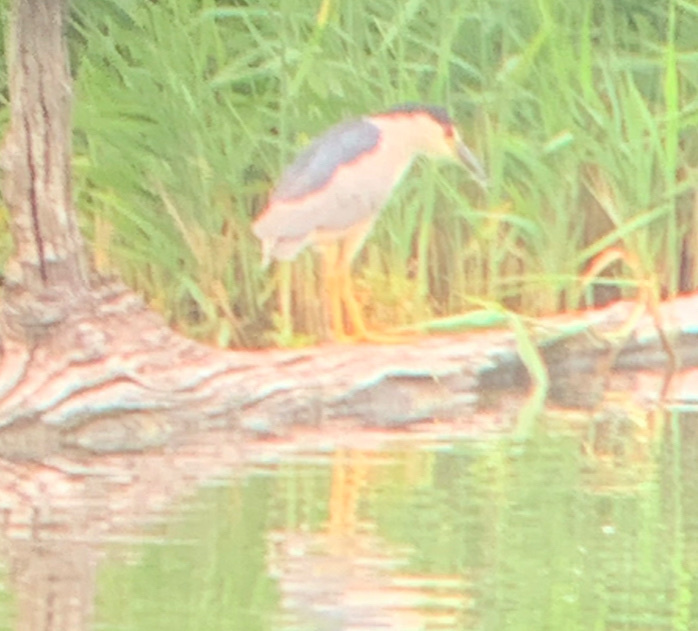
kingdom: Animalia
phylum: Chordata
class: Aves
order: Pelecaniformes
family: Ardeidae
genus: Nycticorax
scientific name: Nycticorax nycticorax
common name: Black-crowned night heron
